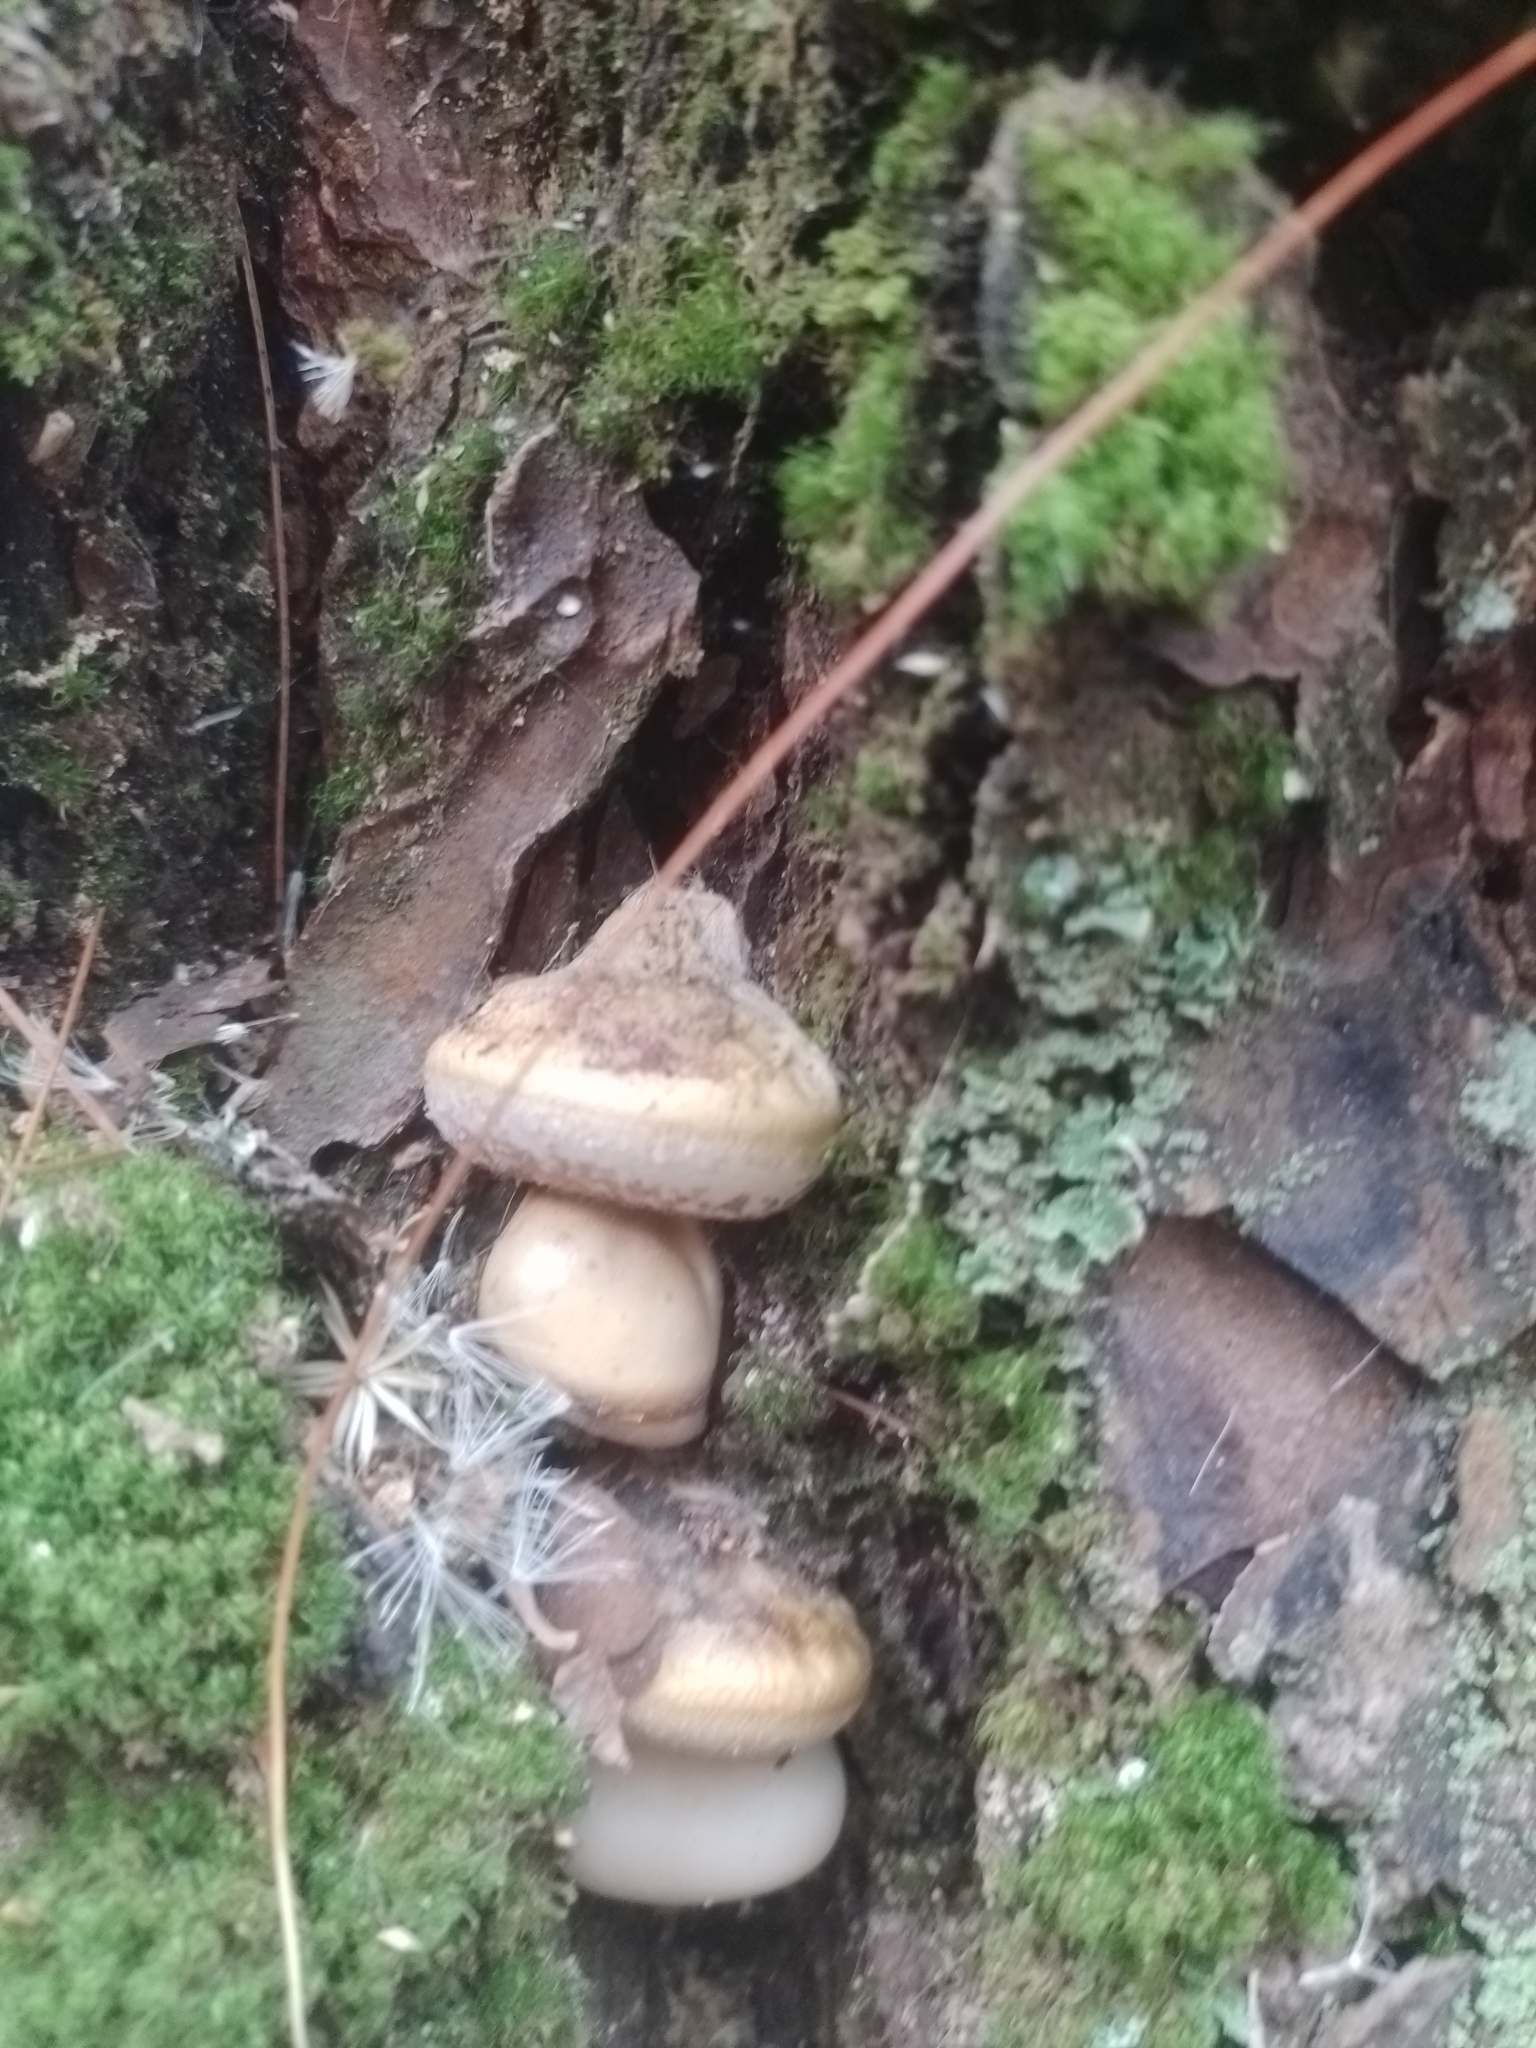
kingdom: Fungi
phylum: Basidiomycota
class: Agaricomycetes
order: Polyporales
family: Polyporaceae
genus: Cryptoporus
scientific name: Cryptoporus volvatus
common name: Veiled polypore
